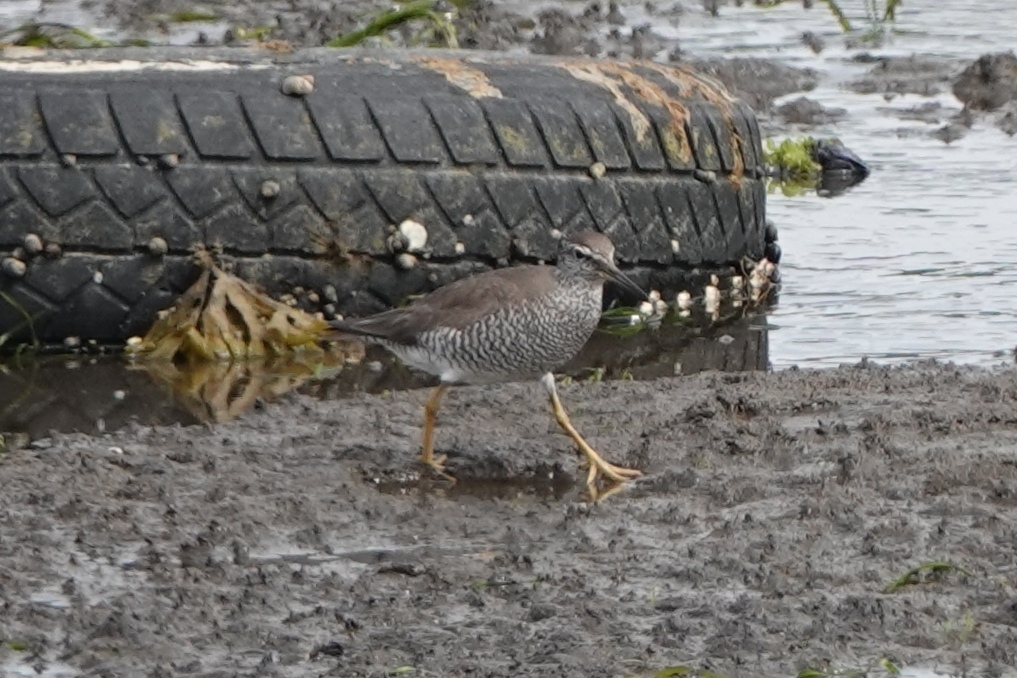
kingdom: Animalia
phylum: Chordata
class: Aves
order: Charadriiformes
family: Scolopacidae
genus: Tringa
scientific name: Tringa incana
